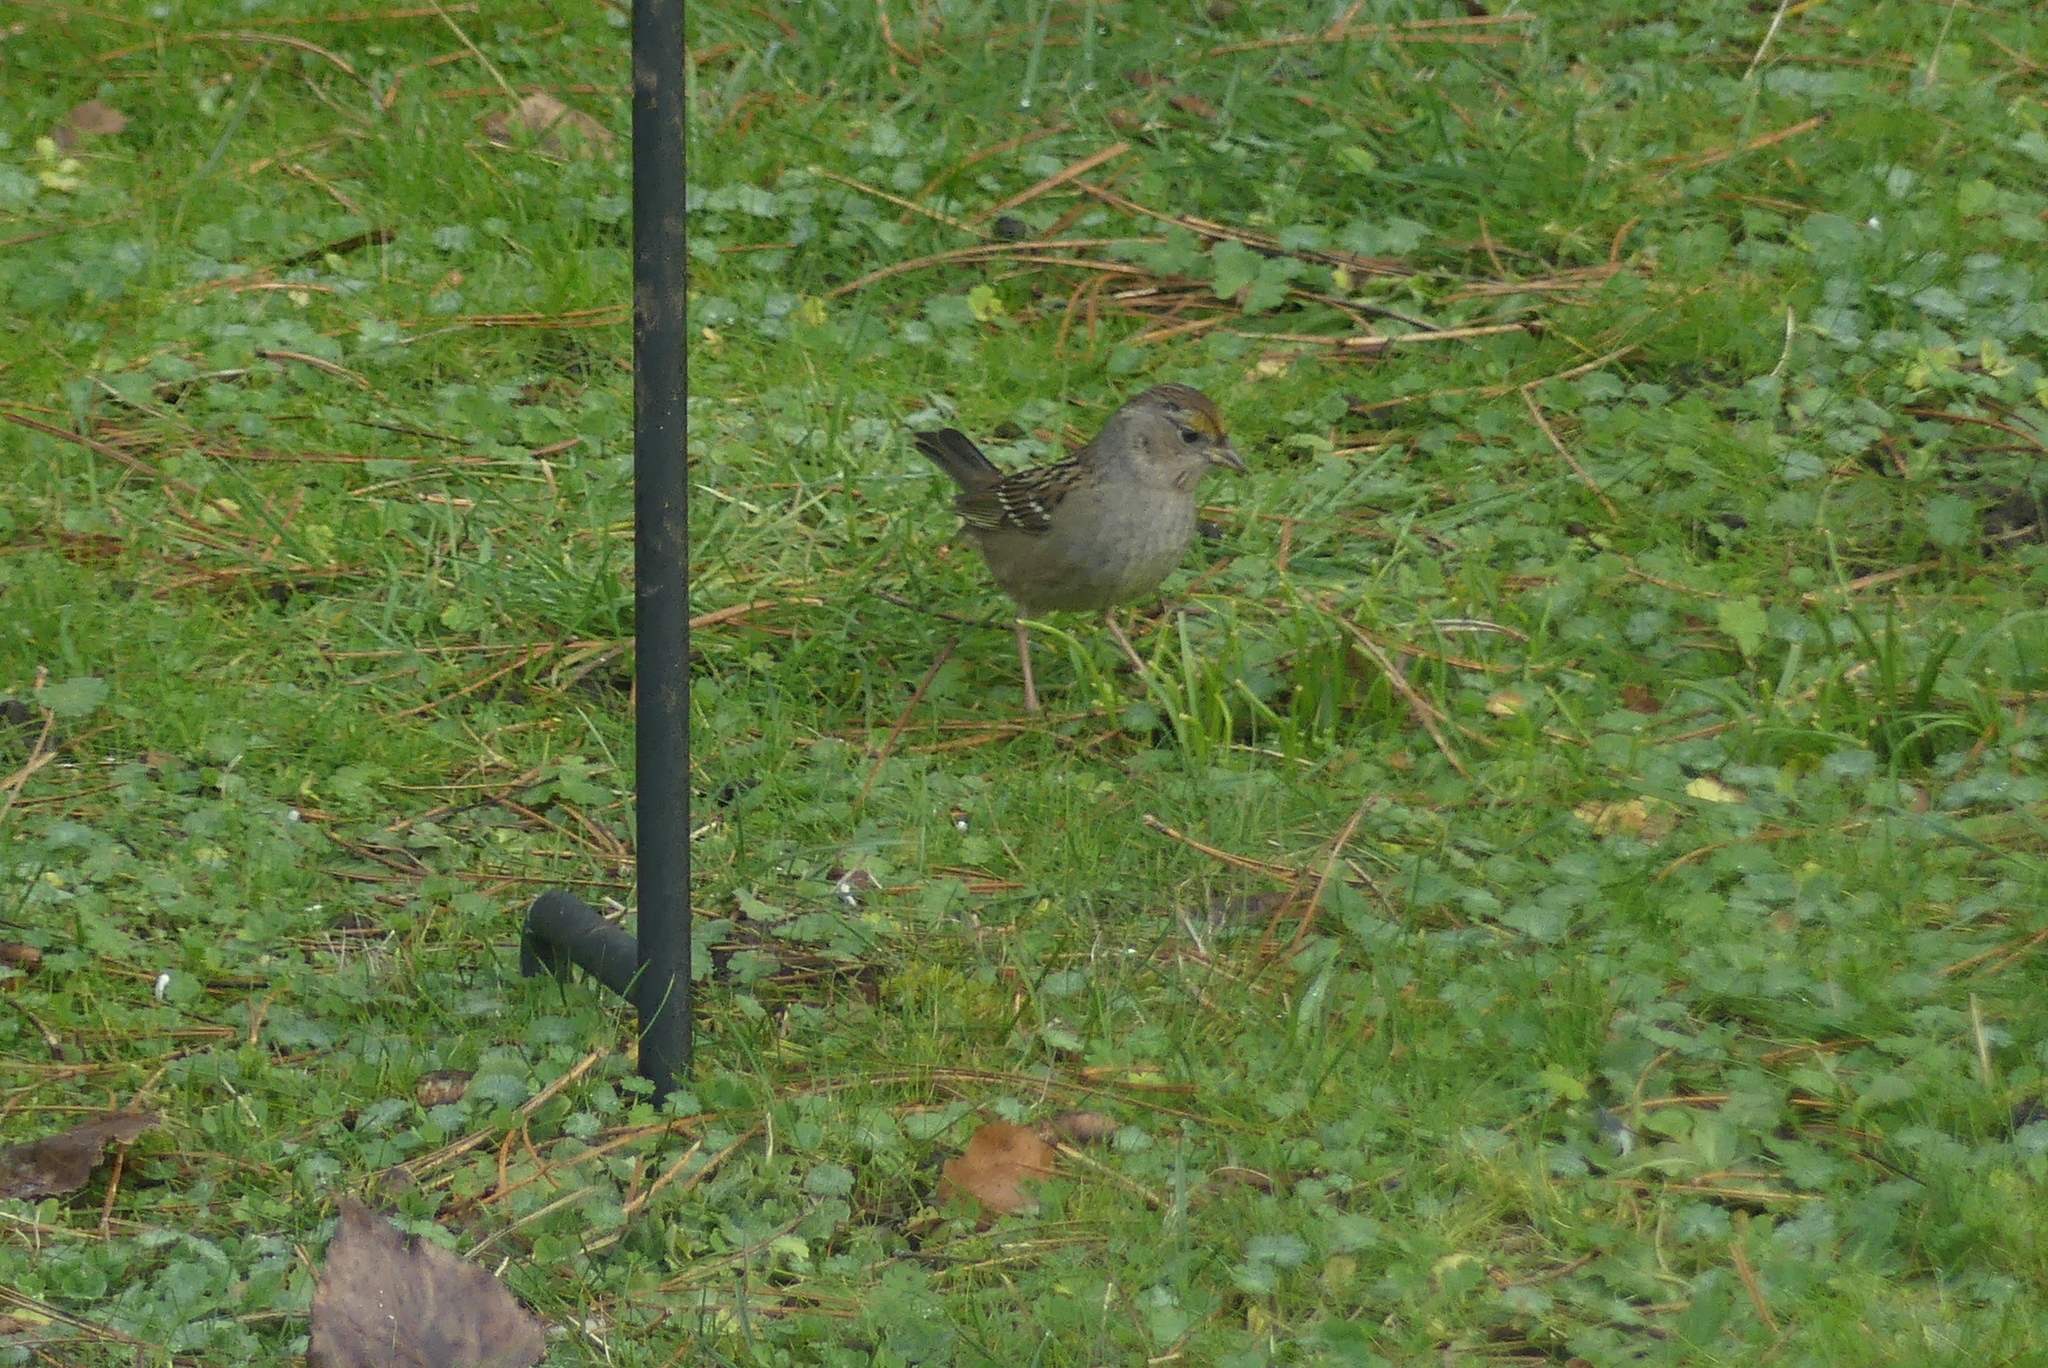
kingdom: Animalia
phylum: Chordata
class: Aves
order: Passeriformes
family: Passerellidae
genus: Zonotrichia
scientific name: Zonotrichia atricapilla
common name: Golden-crowned sparrow
